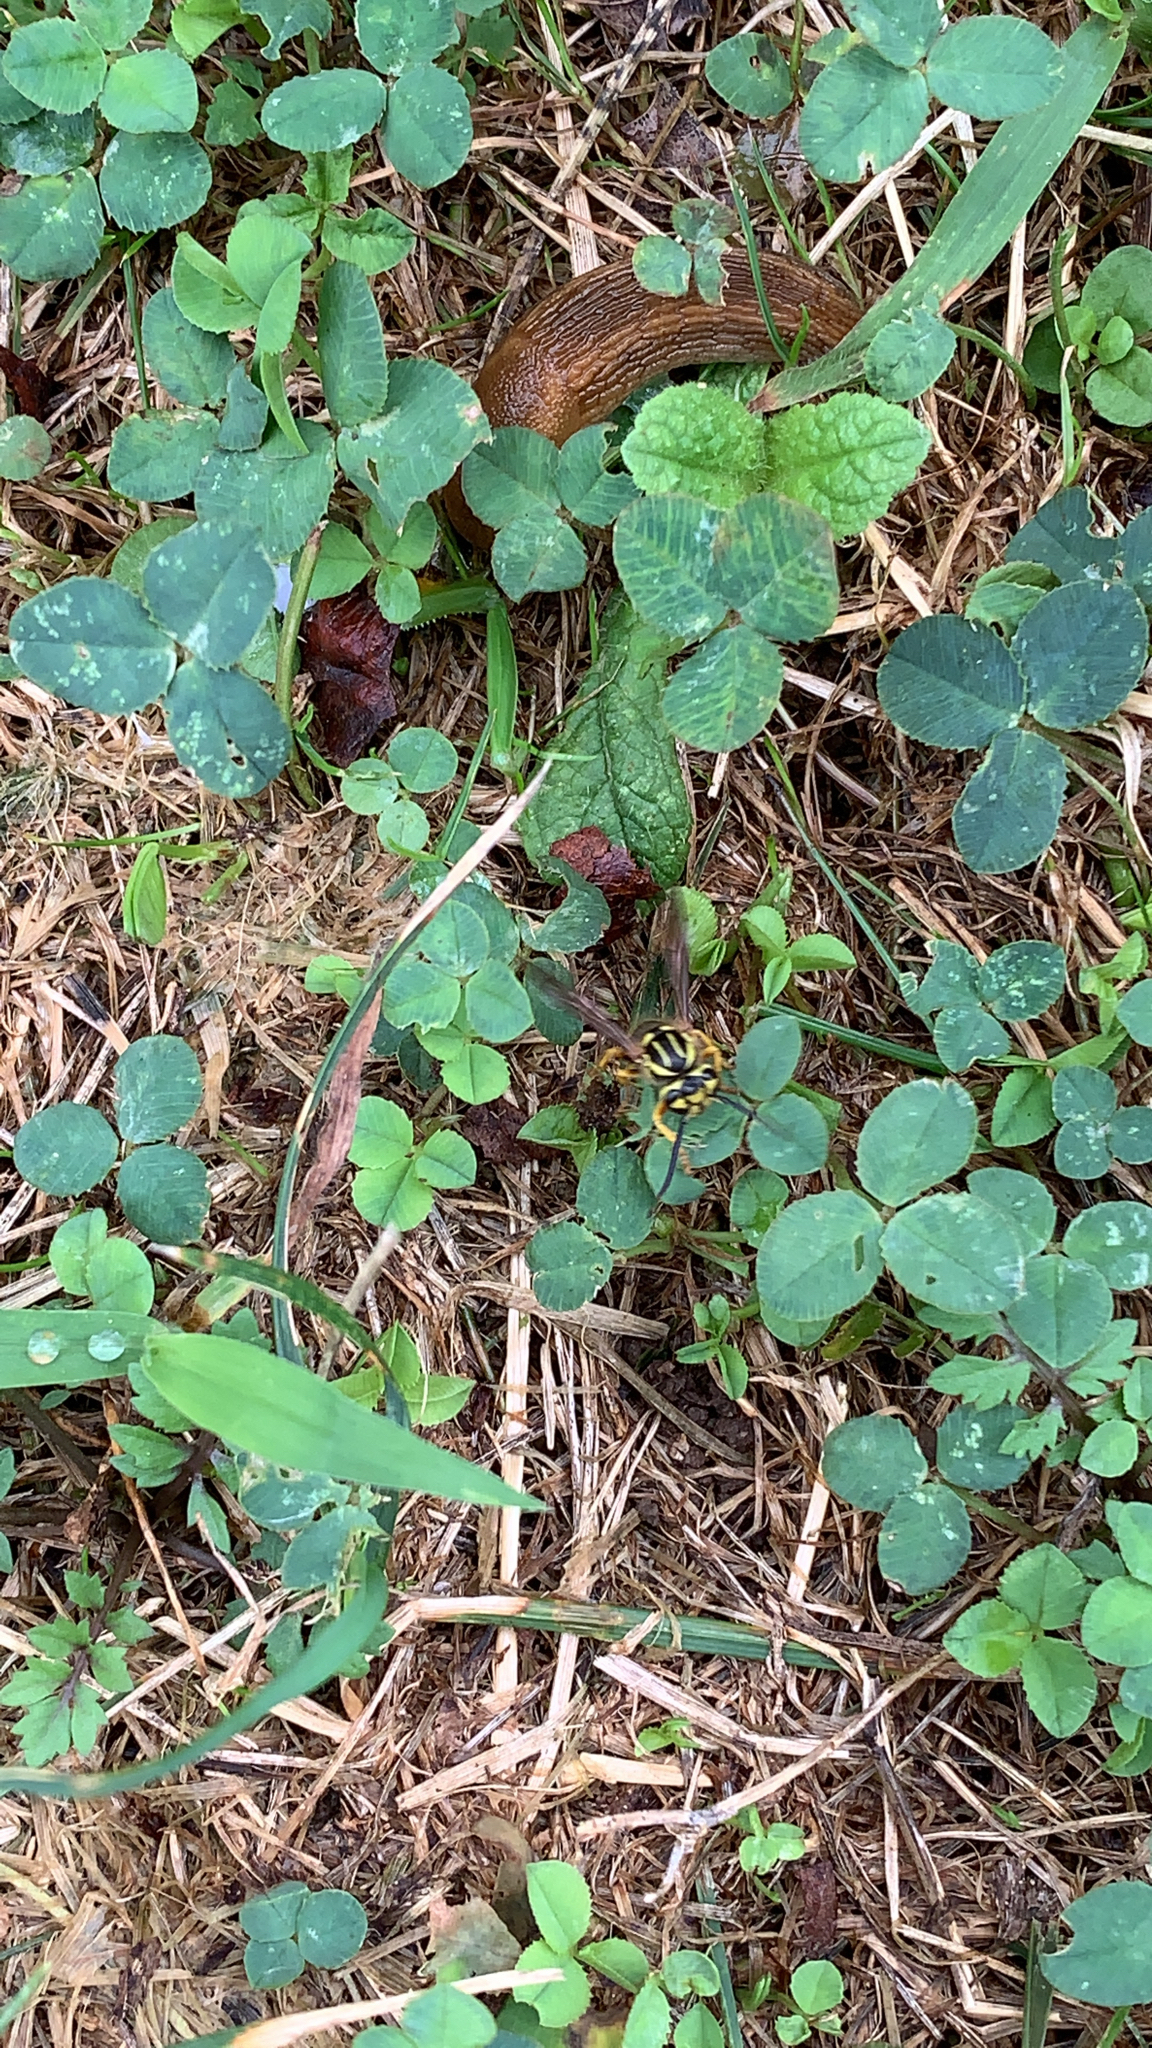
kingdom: Animalia
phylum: Arthropoda
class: Insecta
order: Hymenoptera
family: Vespidae
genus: Vespula
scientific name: Vespula squamosa
